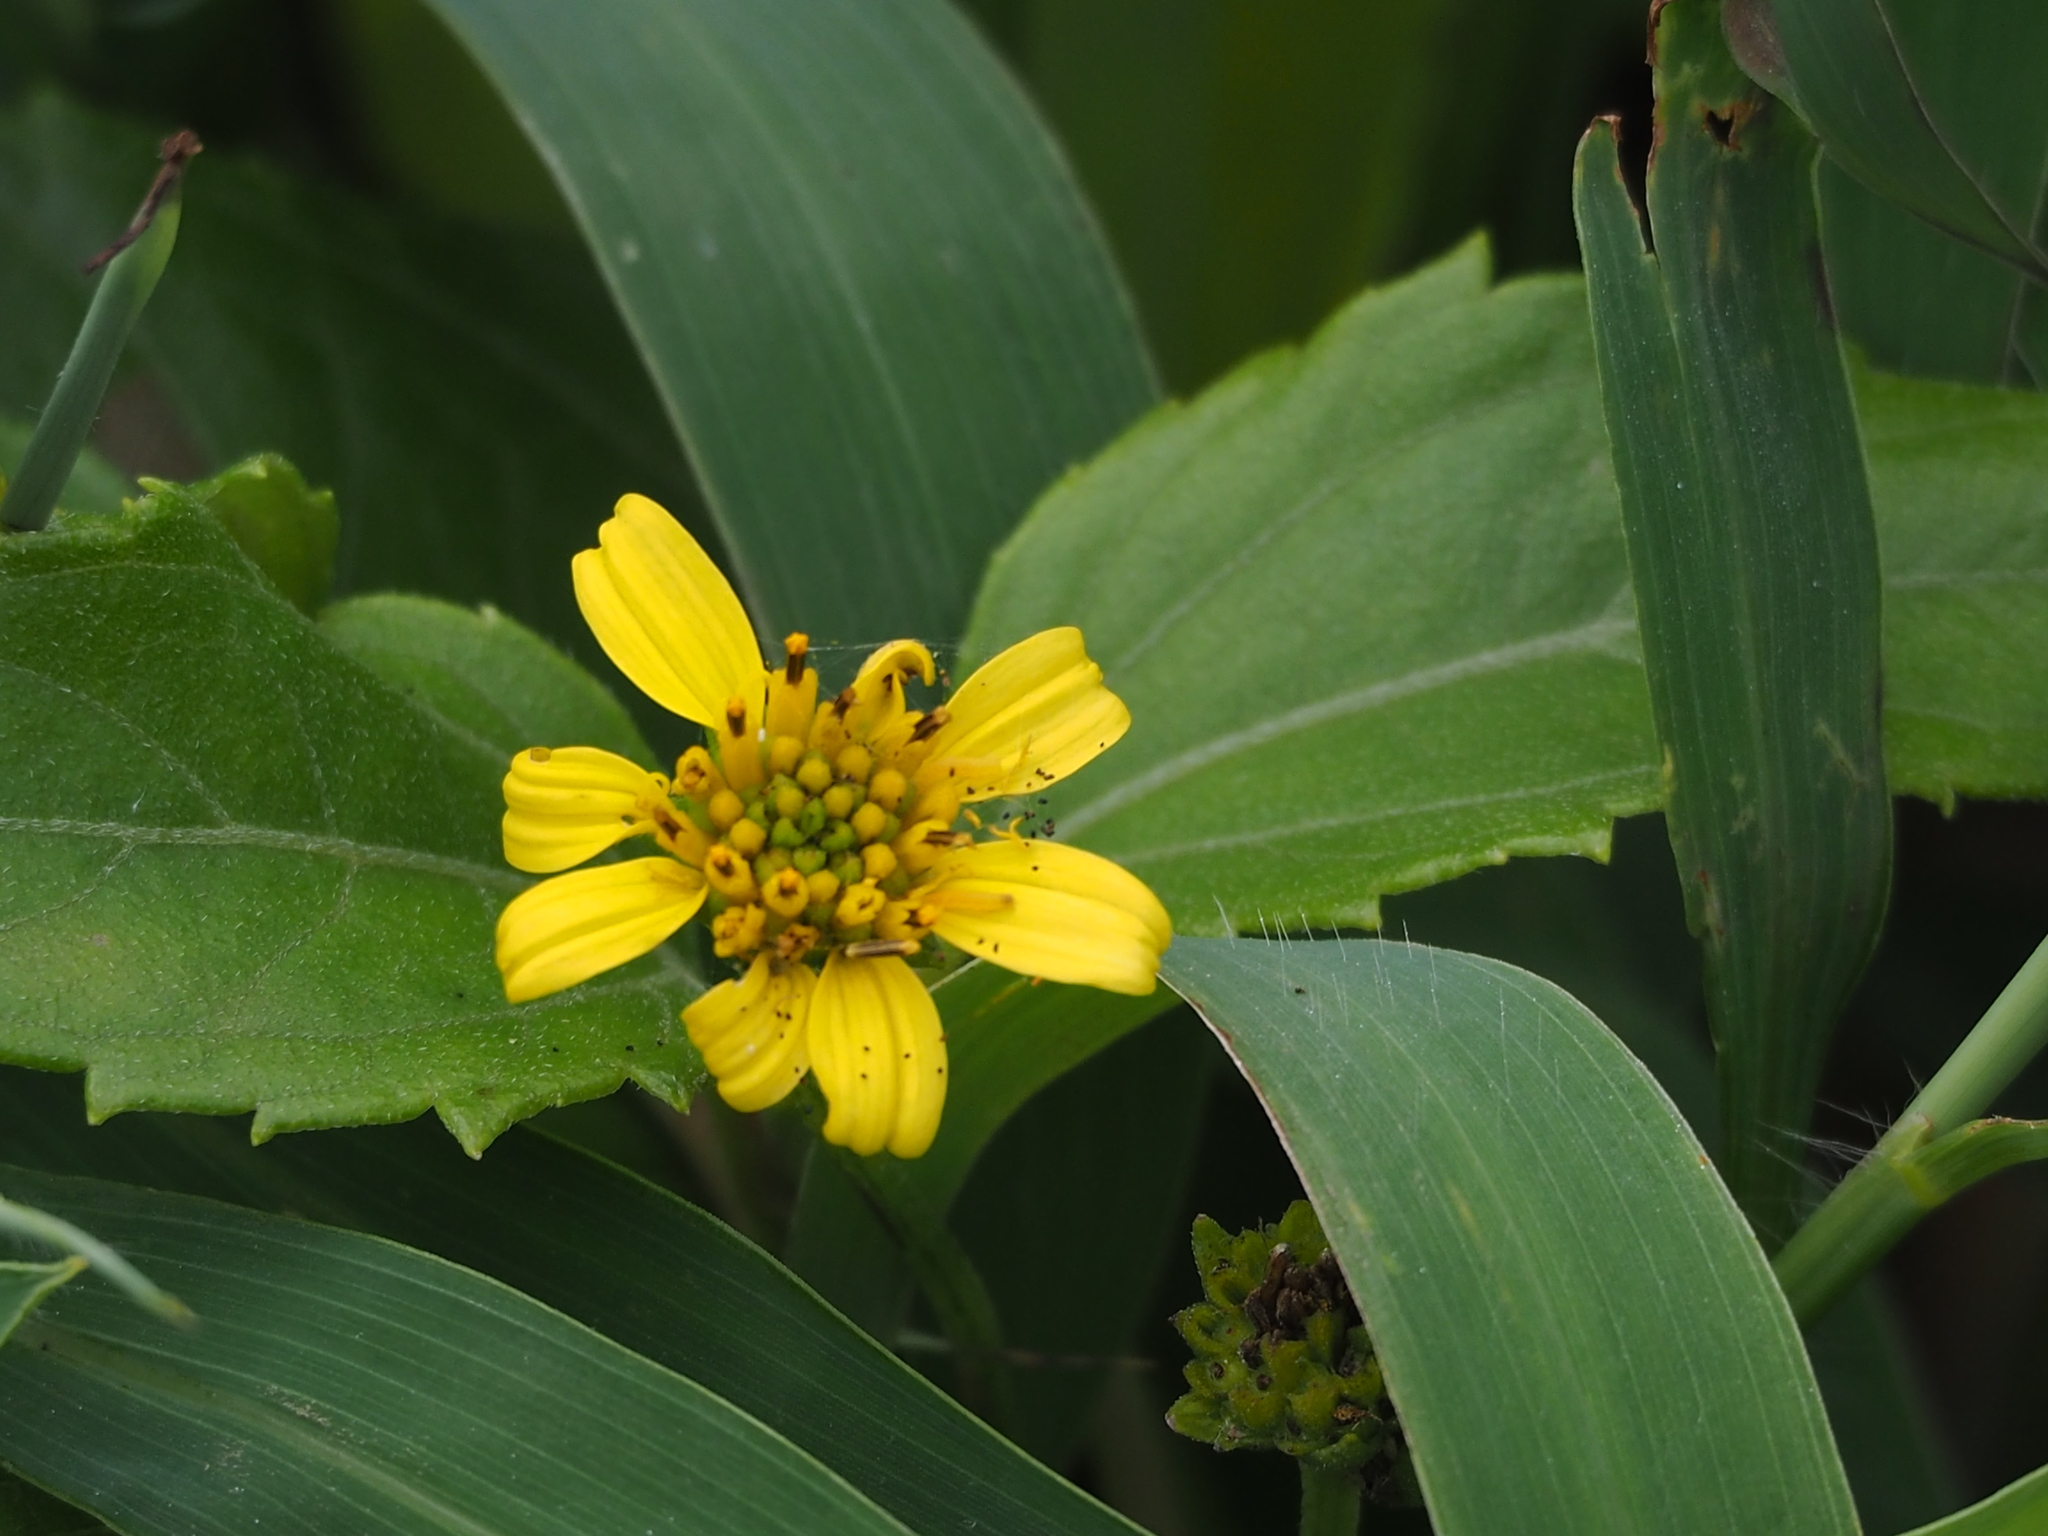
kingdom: Plantae
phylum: Tracheophyta
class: Magnoliopsida
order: Asterales
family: Asteraceae
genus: Wollastonia
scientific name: Wollastonia biflora
